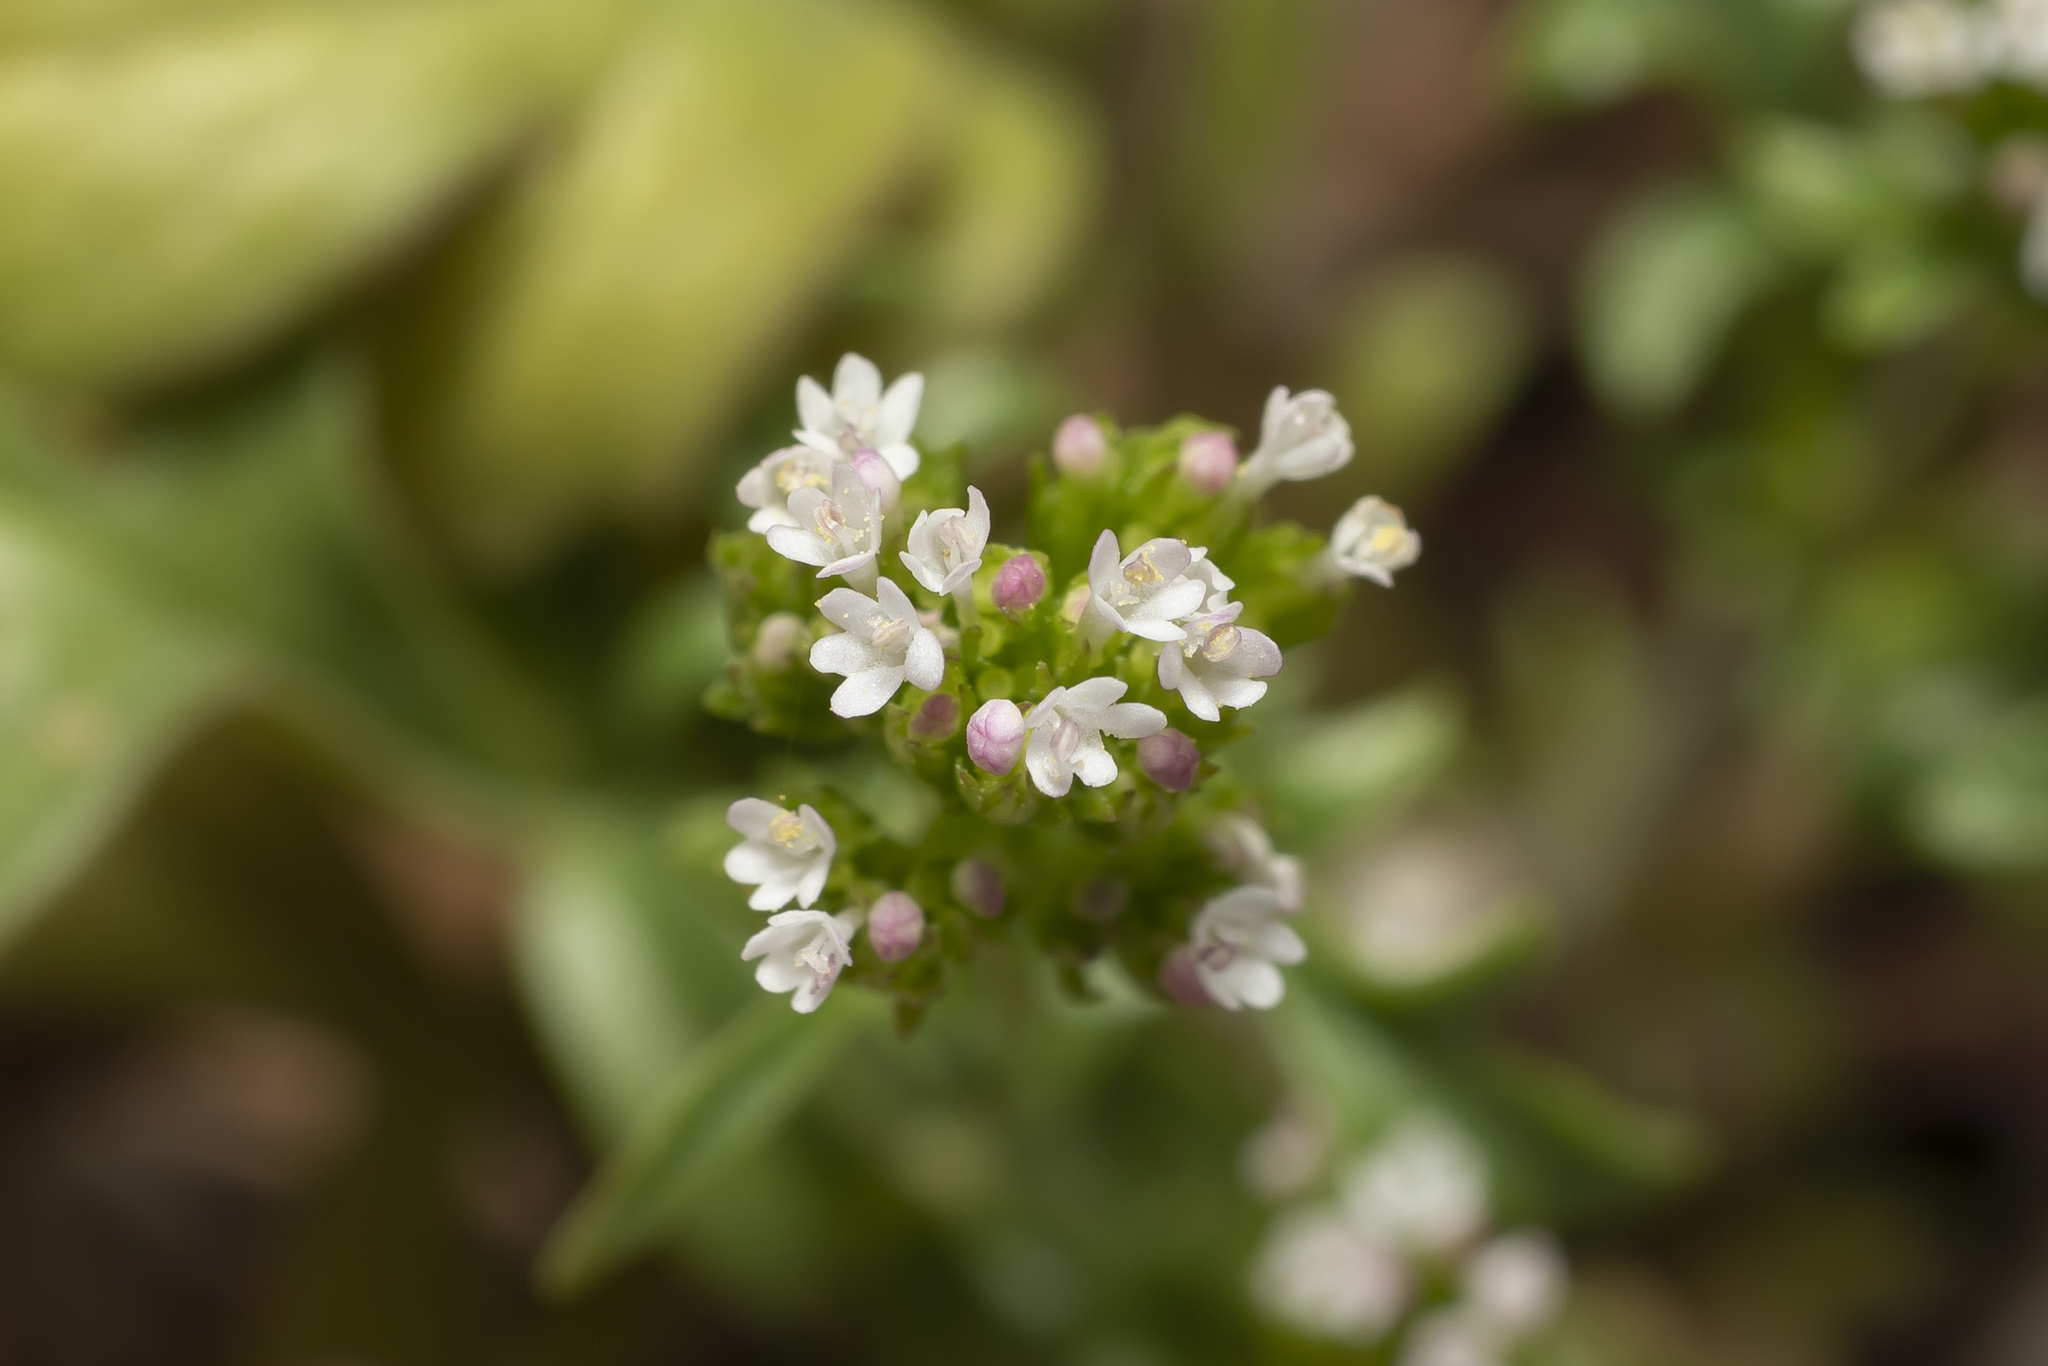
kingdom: Plantae
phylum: Tracheophyta
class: Magnoliopsida
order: Dipsacales
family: Caprifoliaceae
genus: Centranthus
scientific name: Centranthus calcitrapae
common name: Annual valerian
